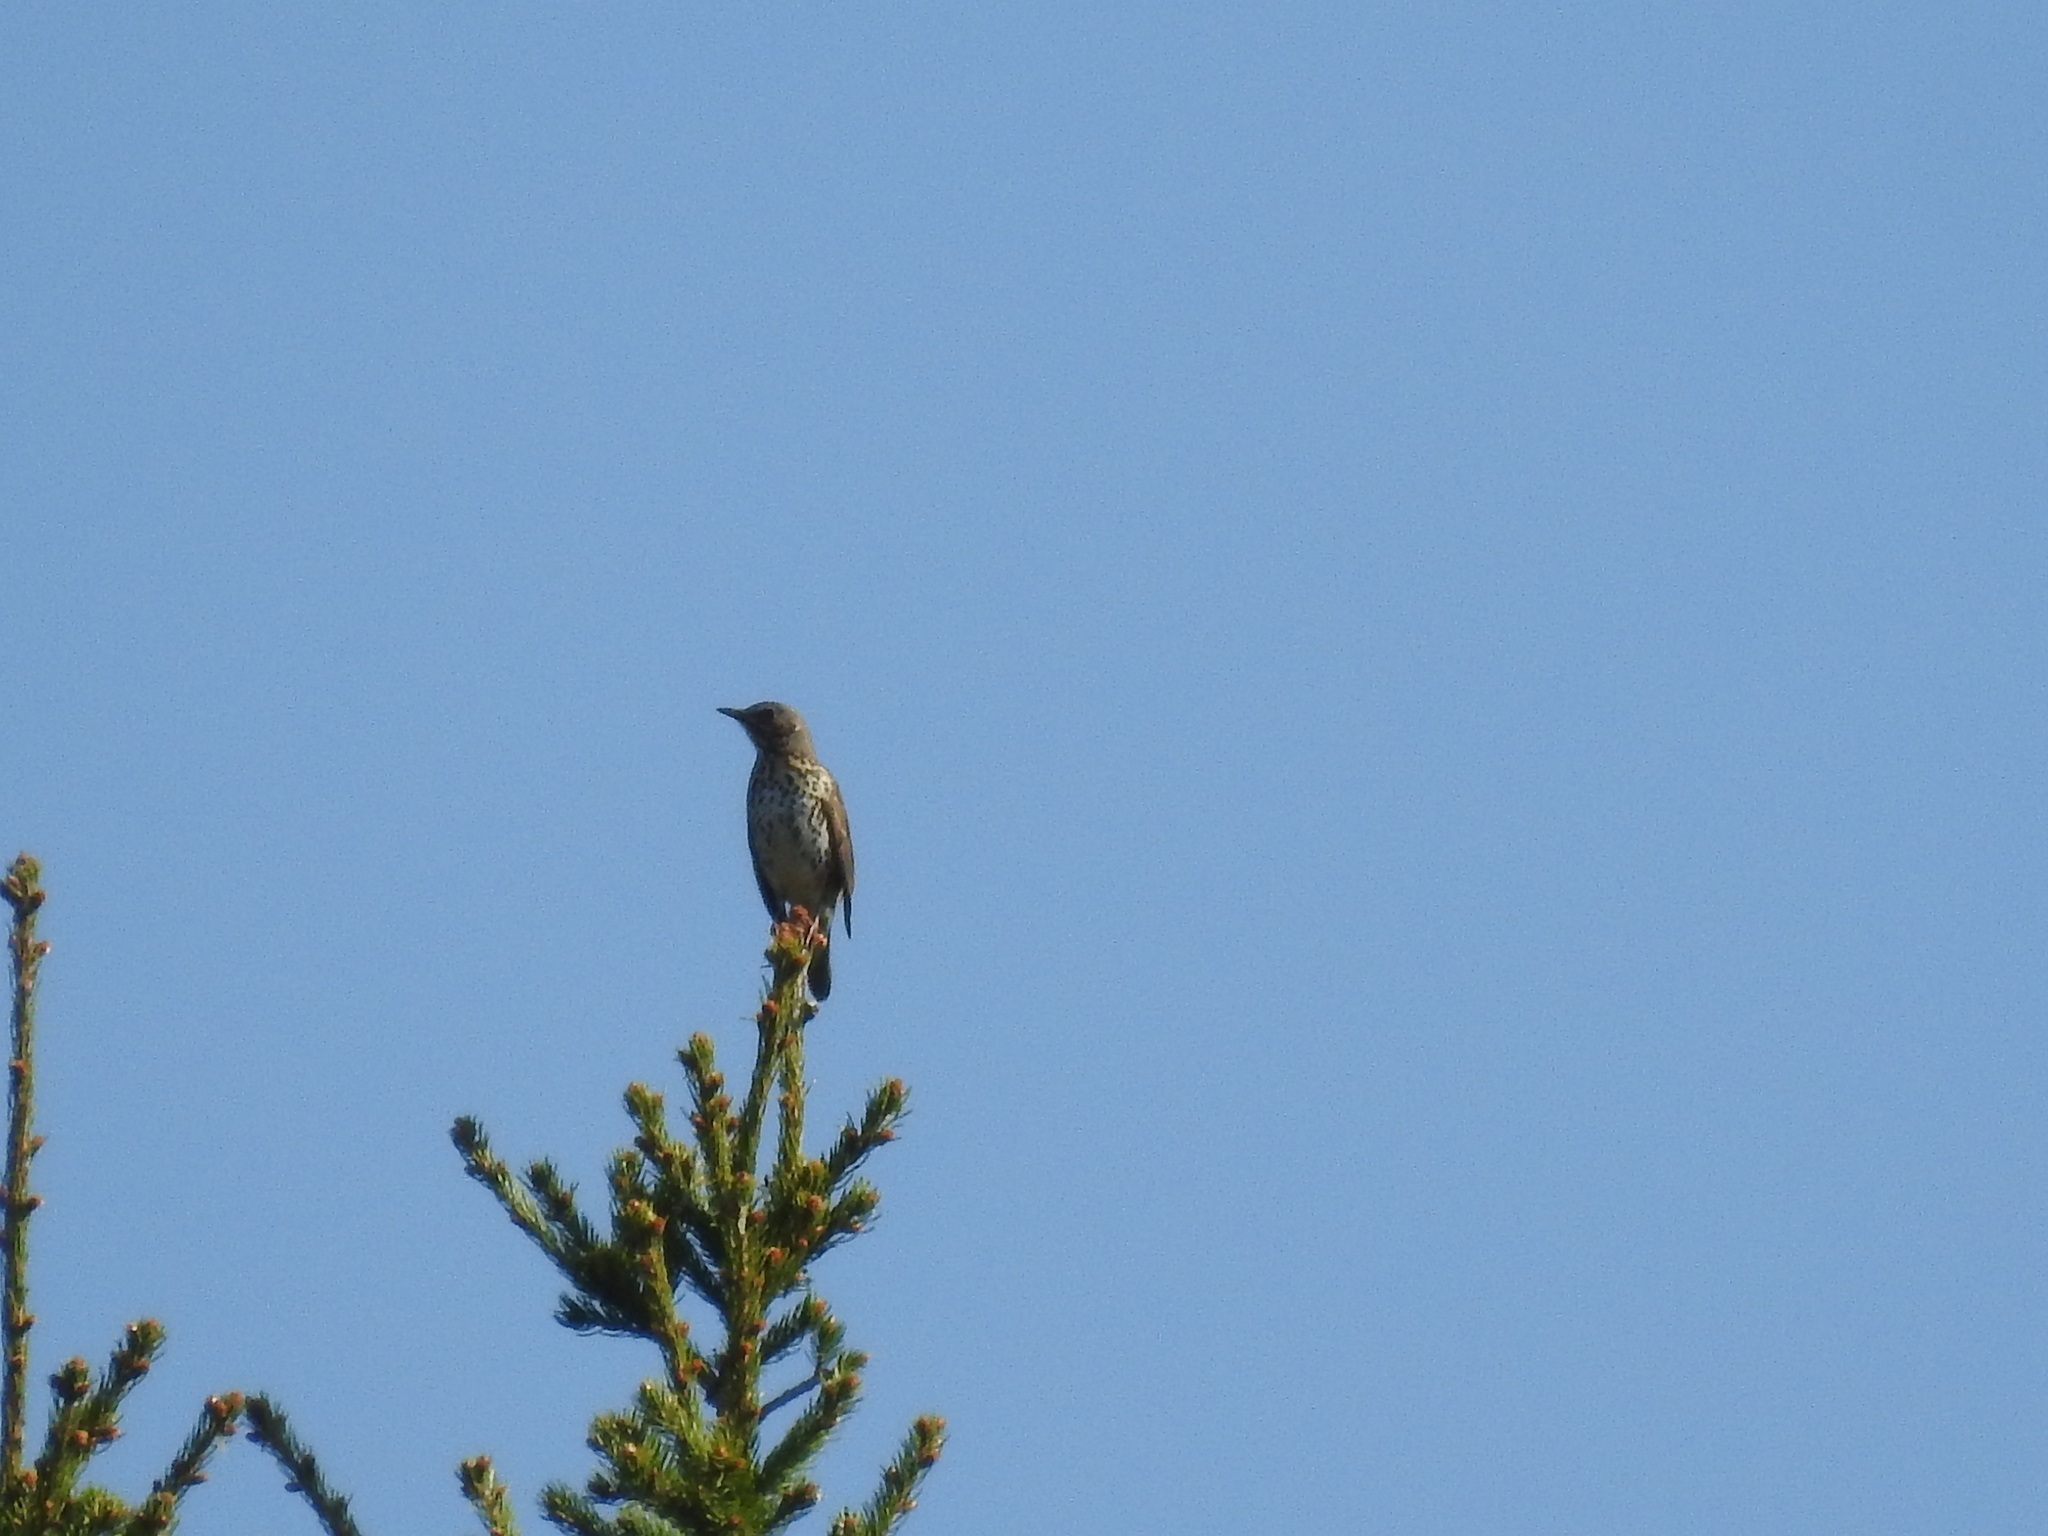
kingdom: Animalia
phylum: Chordata
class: Aves
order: Passeriformes
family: Turdidae
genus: Turdus
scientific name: Turdus viscivorus
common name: Mistle thrush
